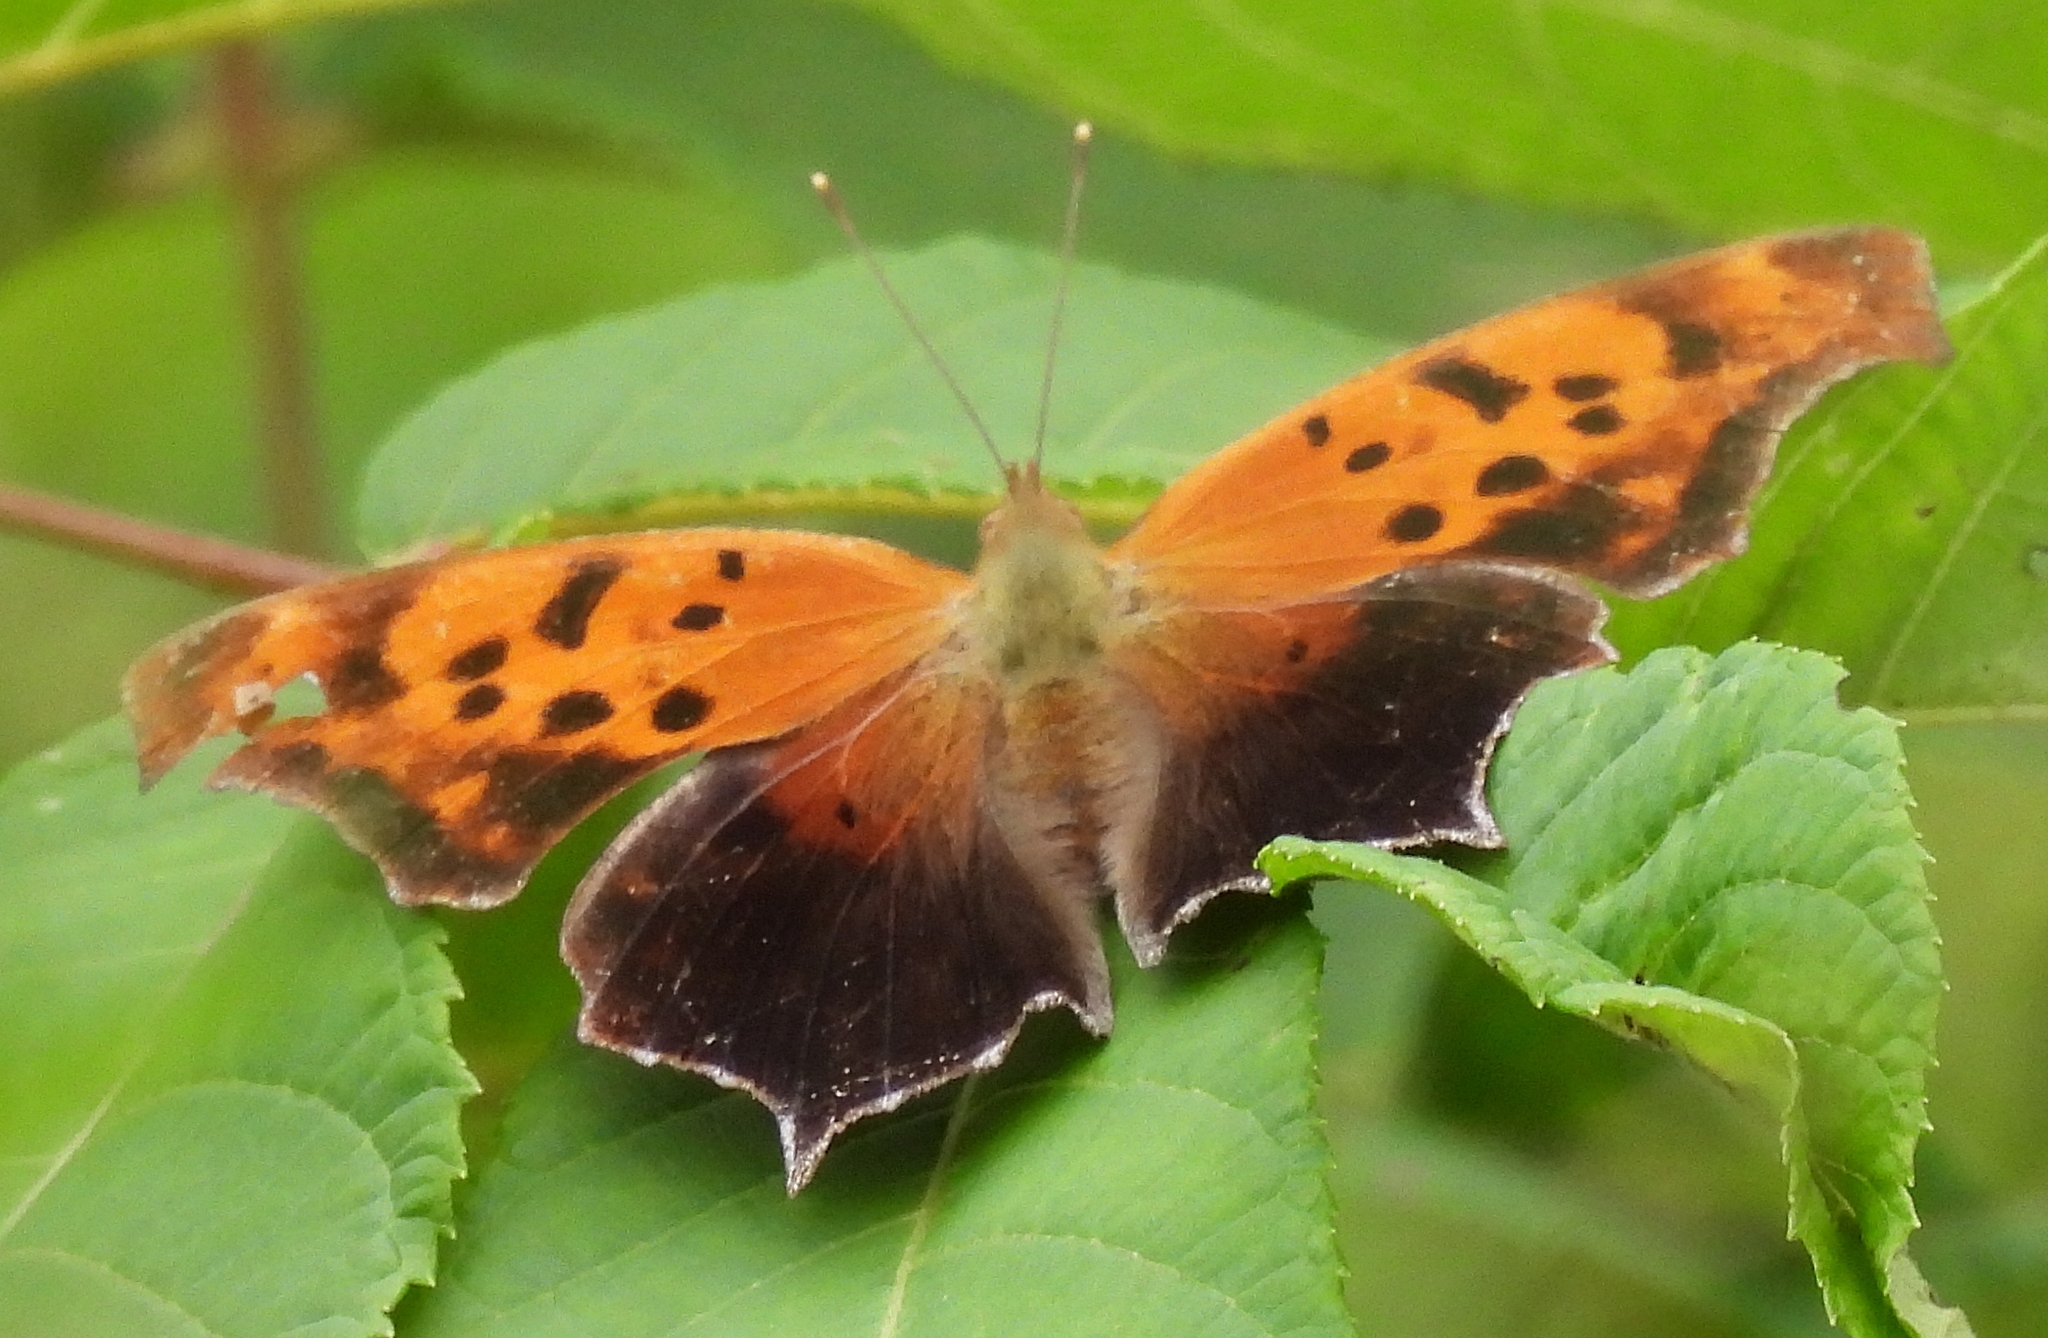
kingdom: Animalia
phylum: Arthropoda
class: Insecta
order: Lepidoptera
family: Nymphalidae
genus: Polygonia
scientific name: Polygonia interrogationis
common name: Question mark
